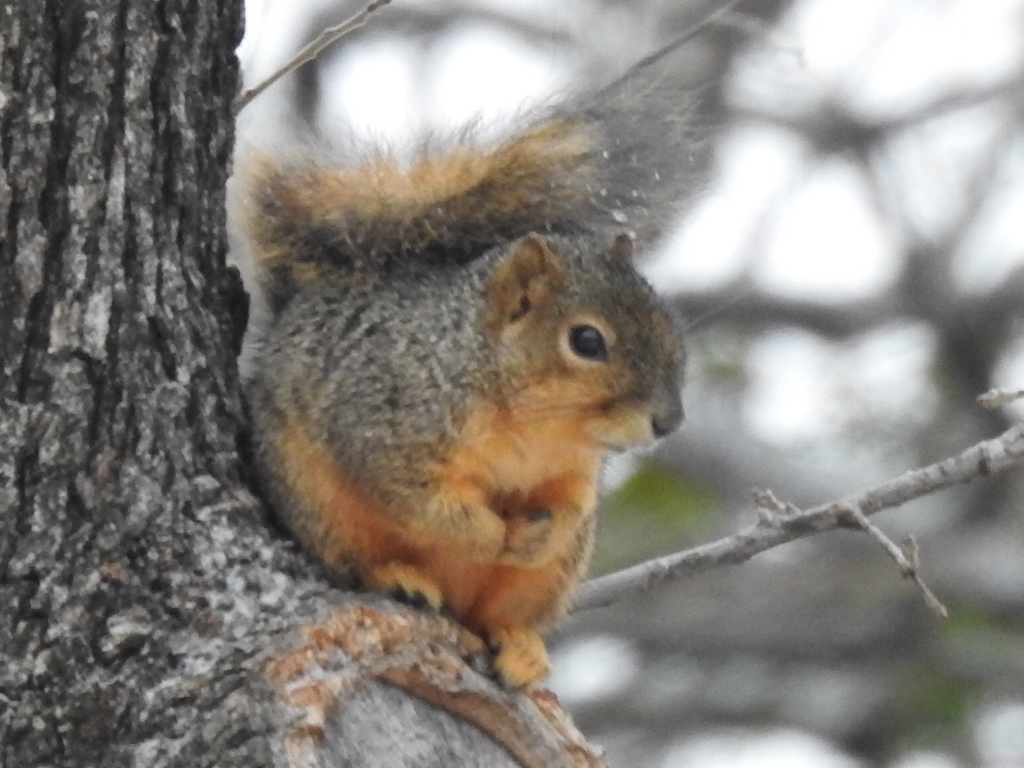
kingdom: Animalia
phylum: Chordata
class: Mammalia
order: Rodentia
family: Sciuridae
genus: Sciurus
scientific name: Sciurus niger
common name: Fox squirrel
